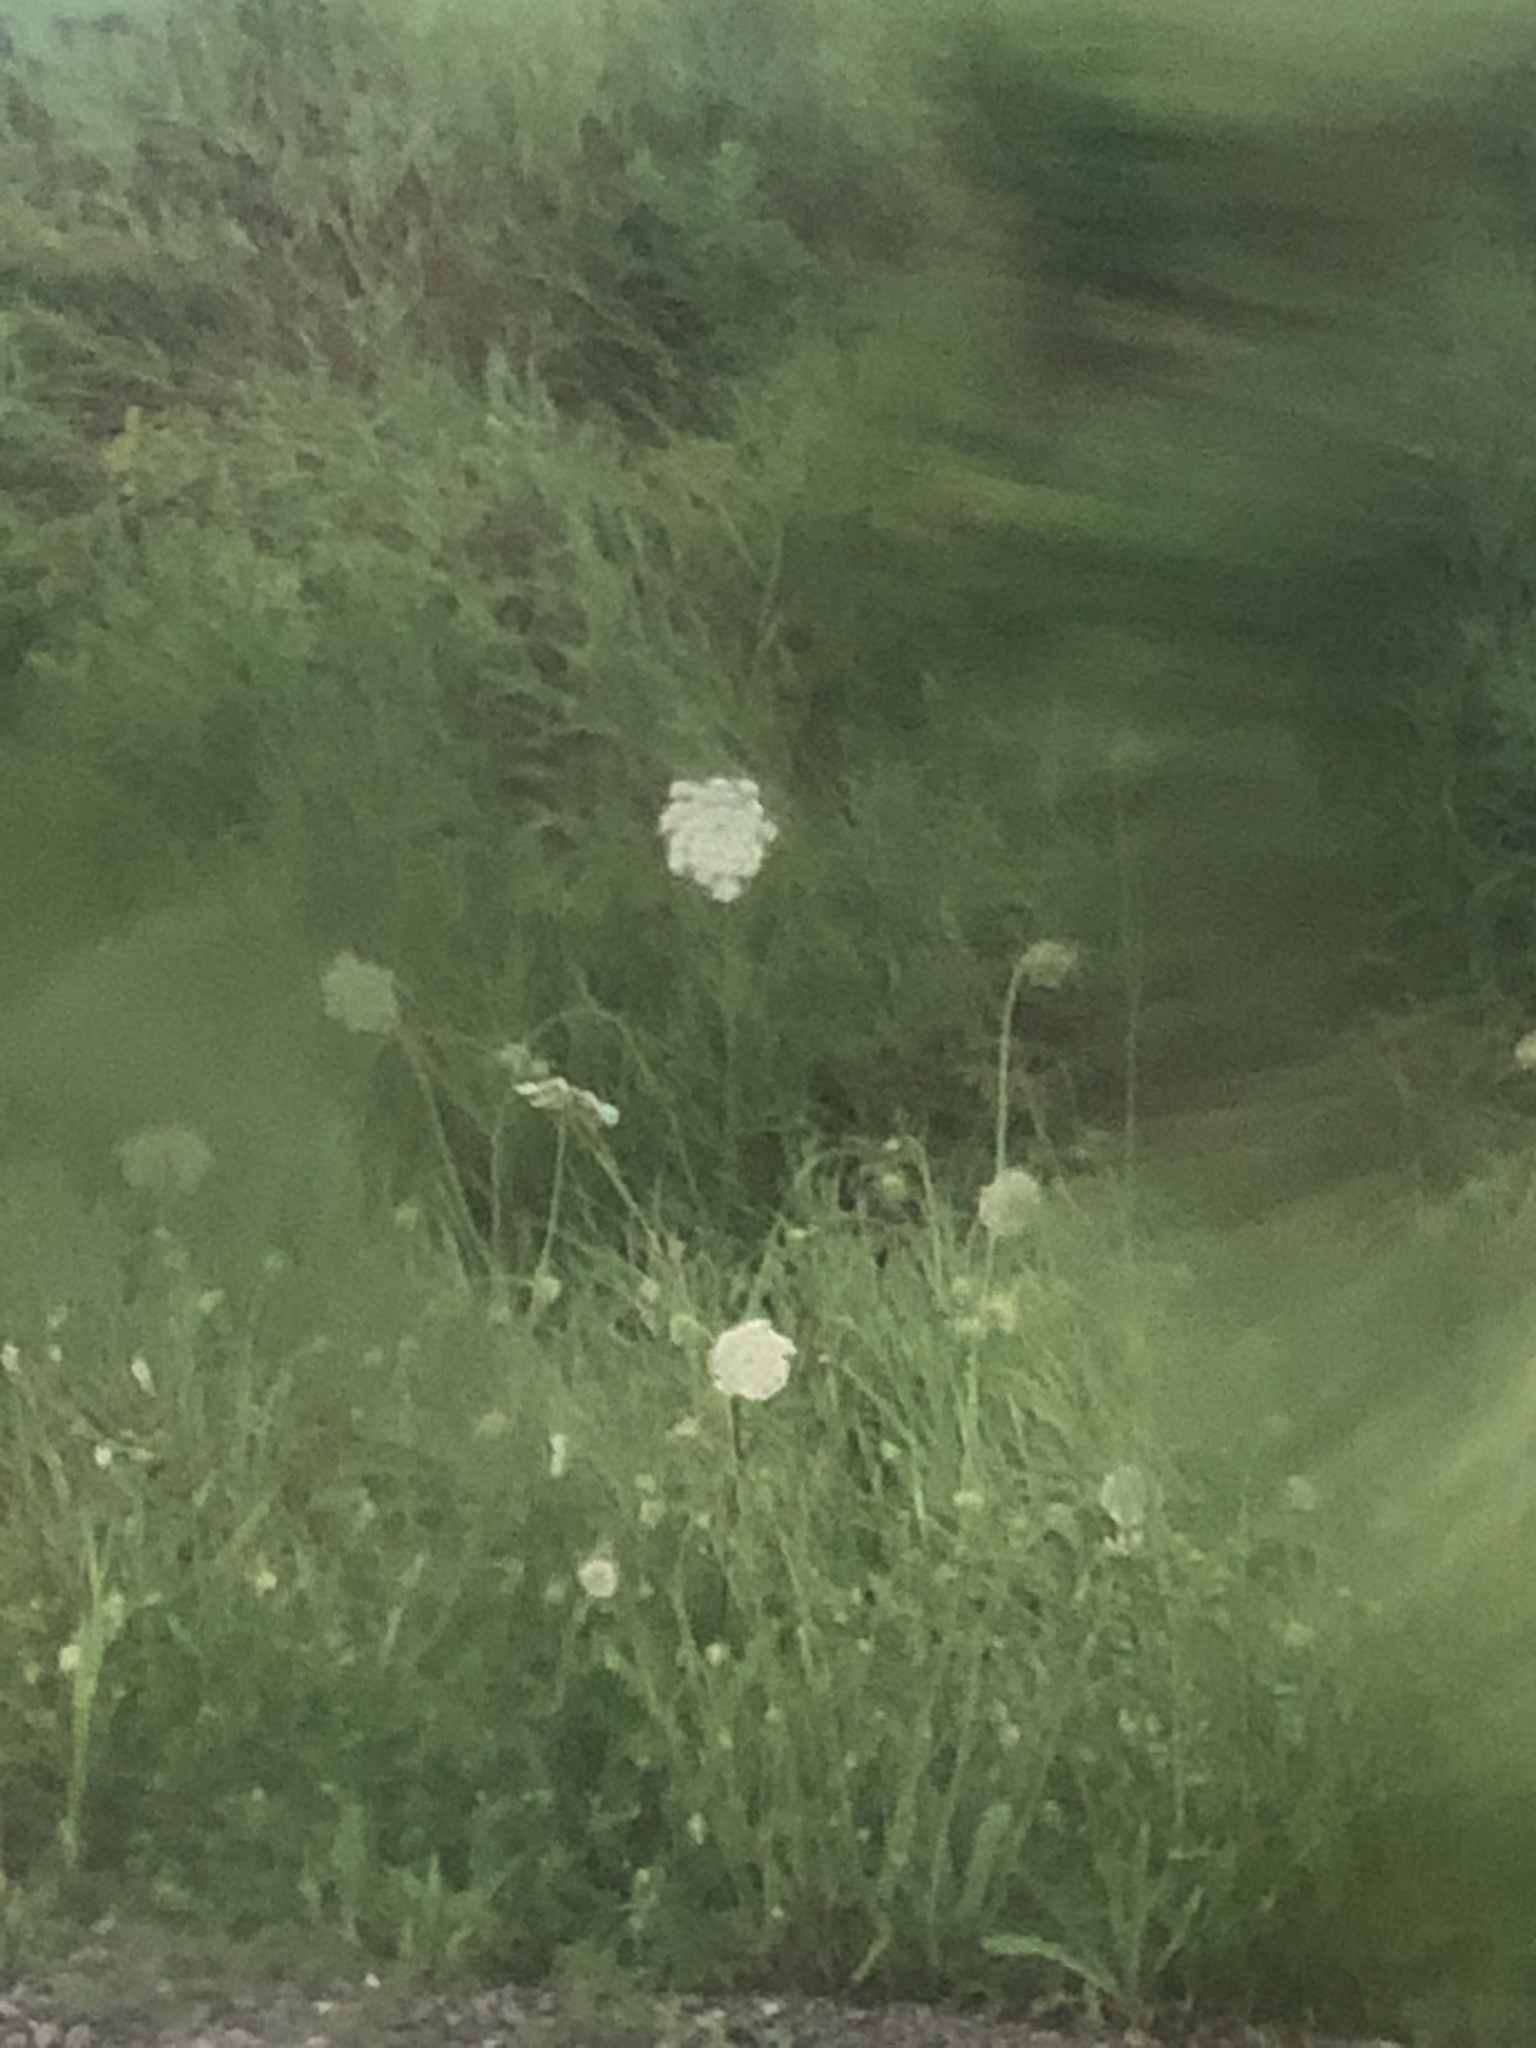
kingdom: Plantae
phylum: Tracheophyta
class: Magnoliopsida
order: Apiales
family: Apiaceae
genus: Daucus
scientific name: Daucus carota
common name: Wild carrot
